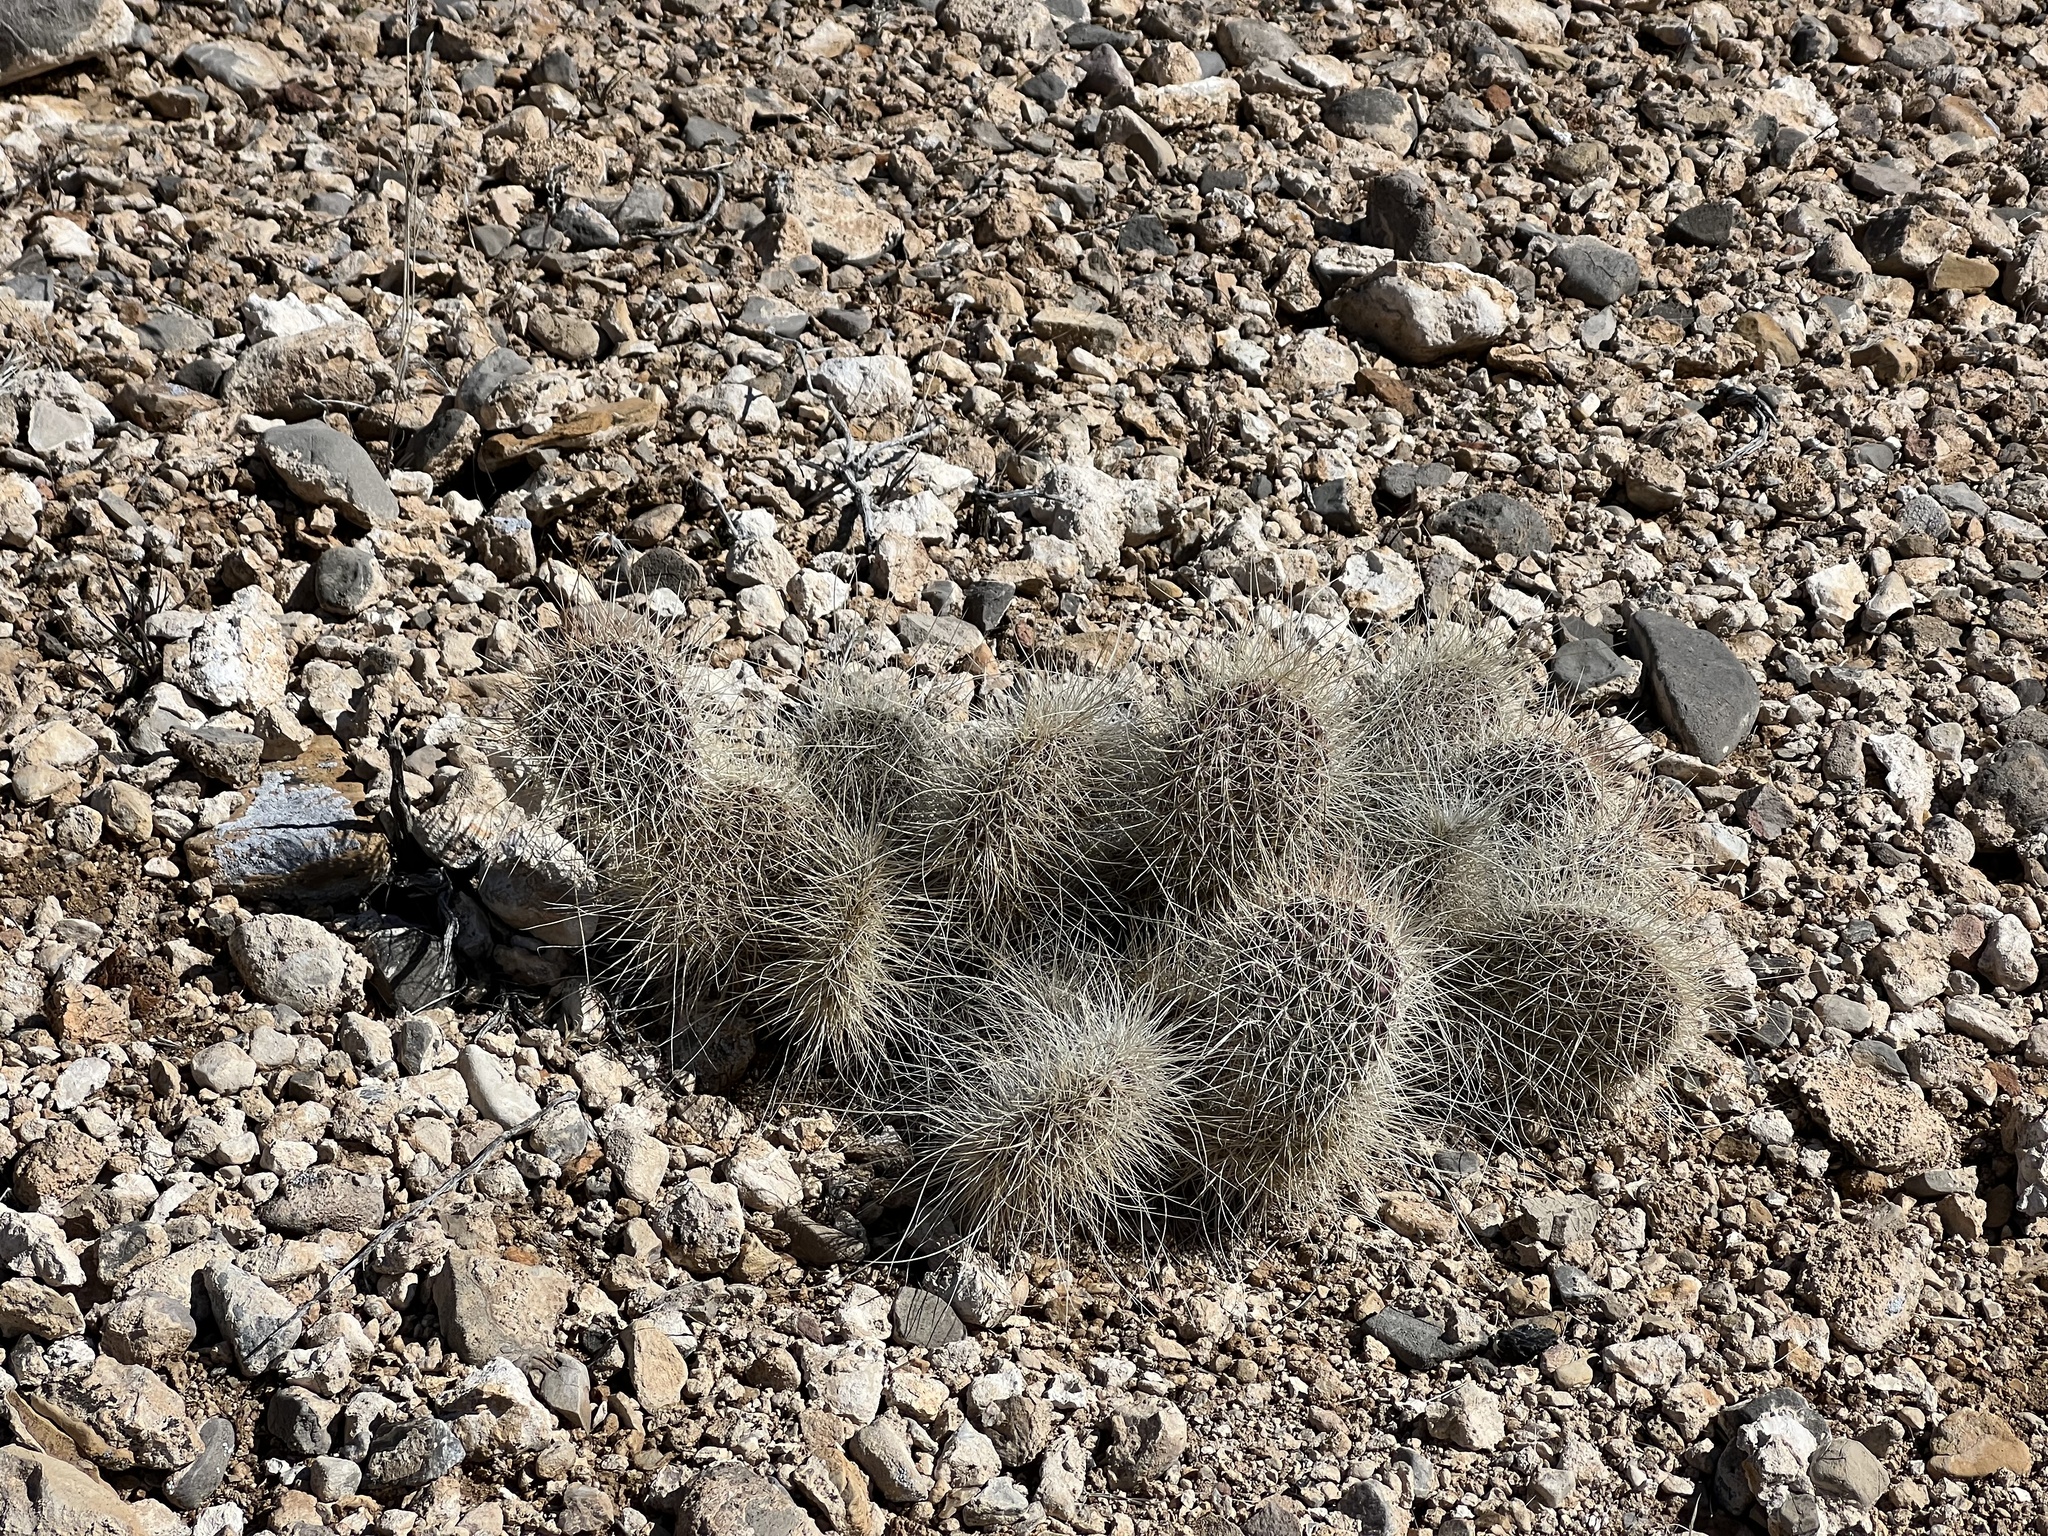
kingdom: Plantae
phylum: Tracheophyta
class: Magnoliopsida
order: Caryophyllales
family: Cactaceae
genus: Opuntia
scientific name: Opuntia polyacantha
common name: Plains prickly-pear
